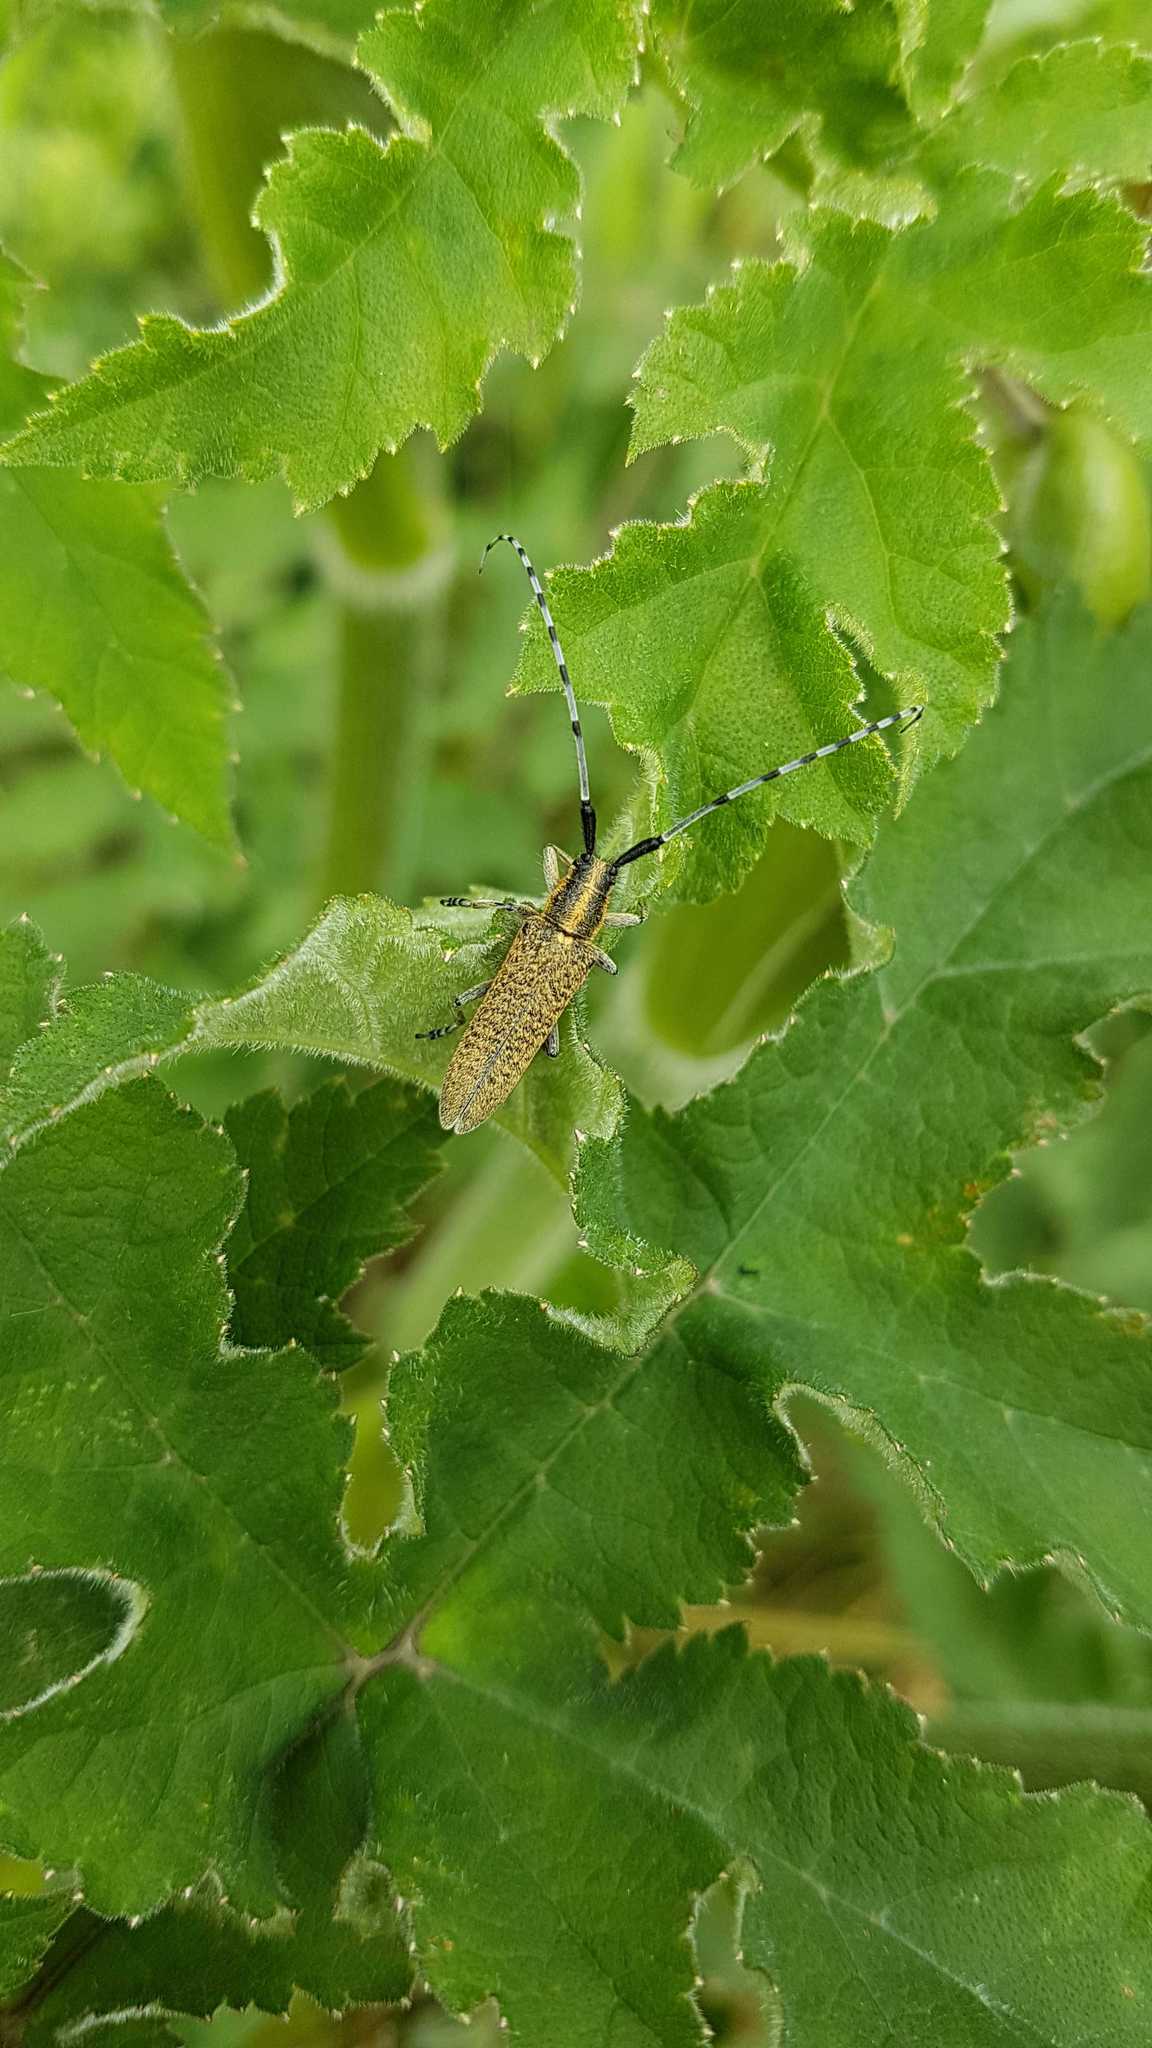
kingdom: Animalia
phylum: Arthropoda
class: Insecta
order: Coleoptera
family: Cerambycidae
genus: Agapanthia
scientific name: Agapanthia villosoviridescens
